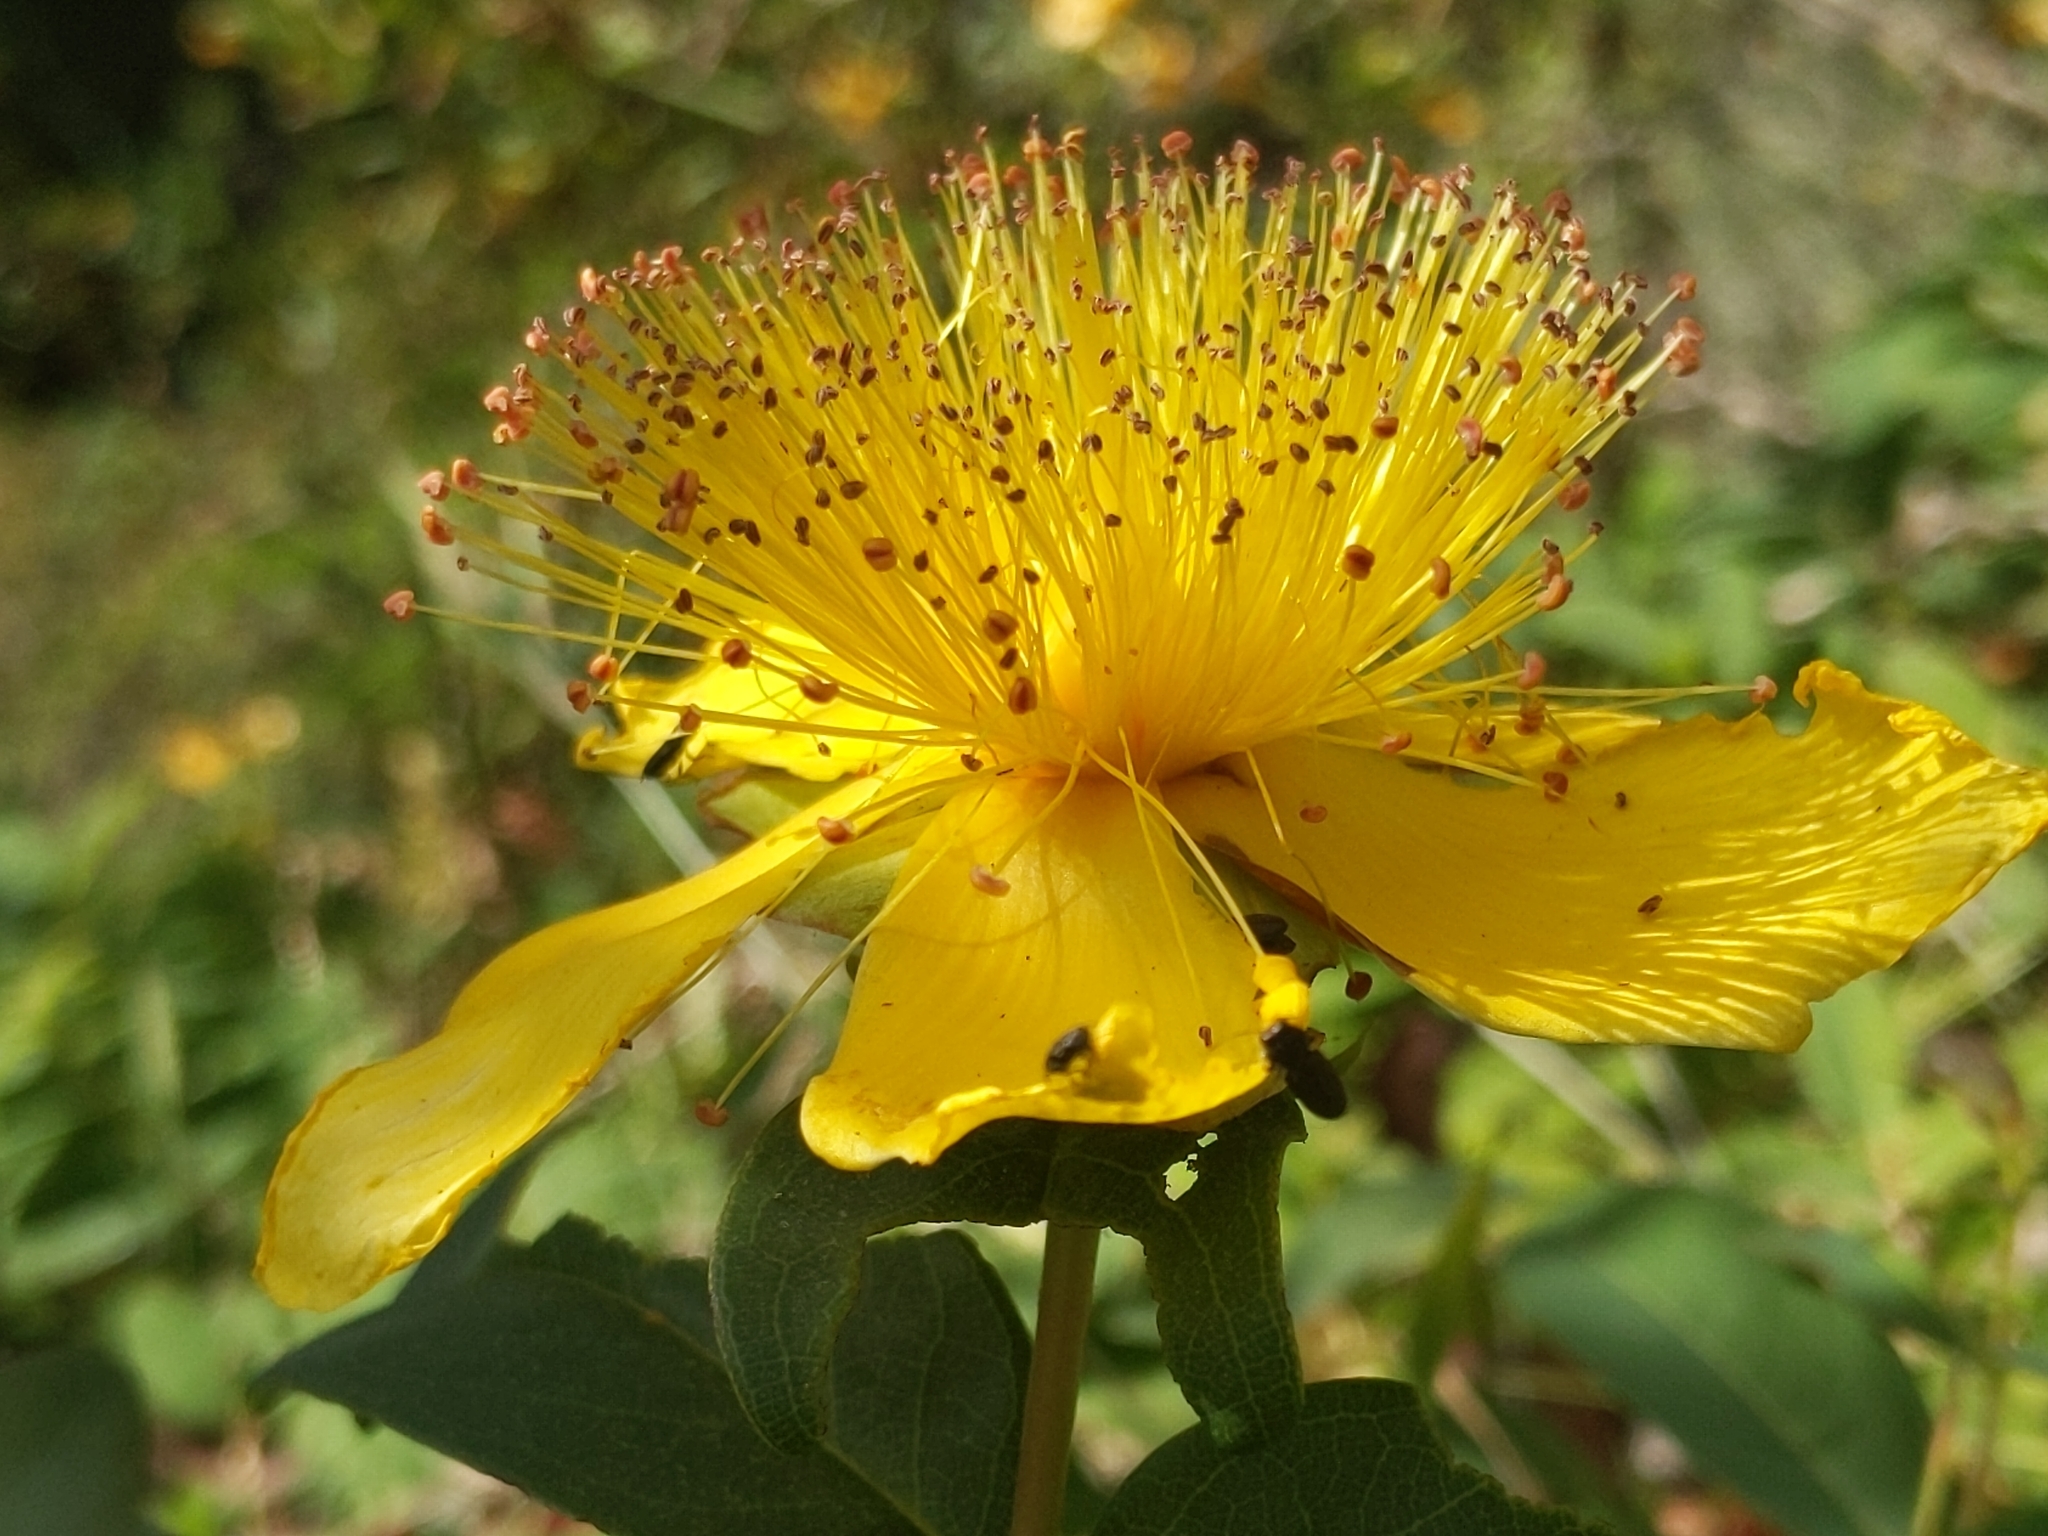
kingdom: Plantae
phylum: Tracheophyta
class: Magnoliopsida
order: Malpighiales
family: Hypericaceae
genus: Hypericum
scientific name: Hypericum calycinum
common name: Rose-of-sharon
